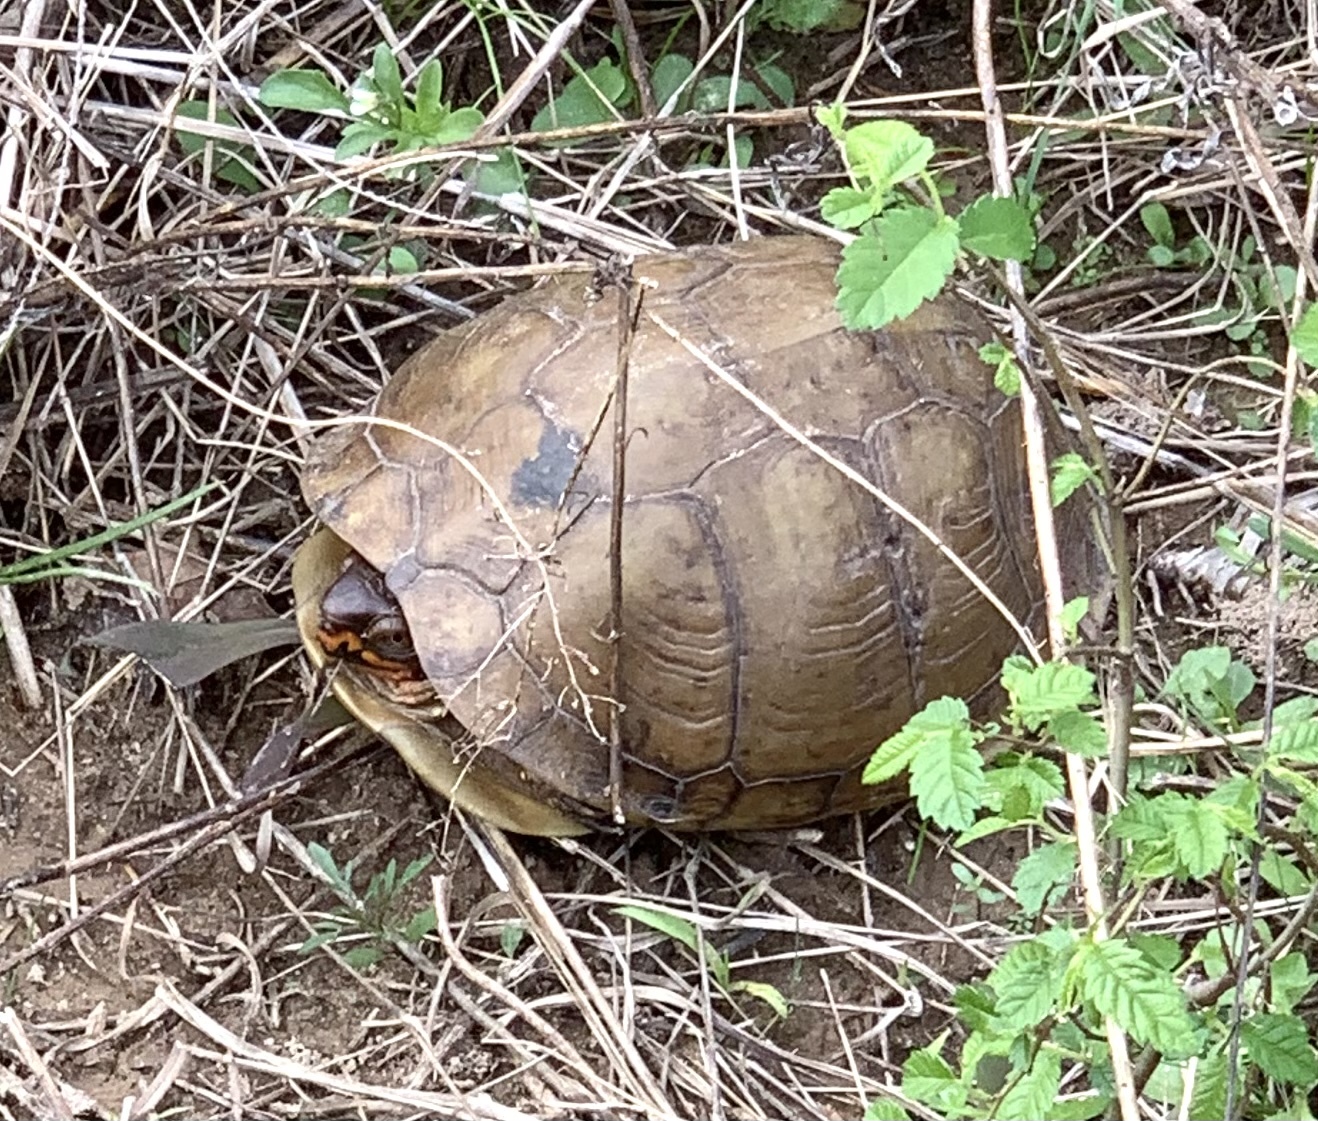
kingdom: Animalia
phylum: Chordata
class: Testudines
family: Emydidae
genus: Terrapene
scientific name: Terrapene carolina
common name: Common box turtle
